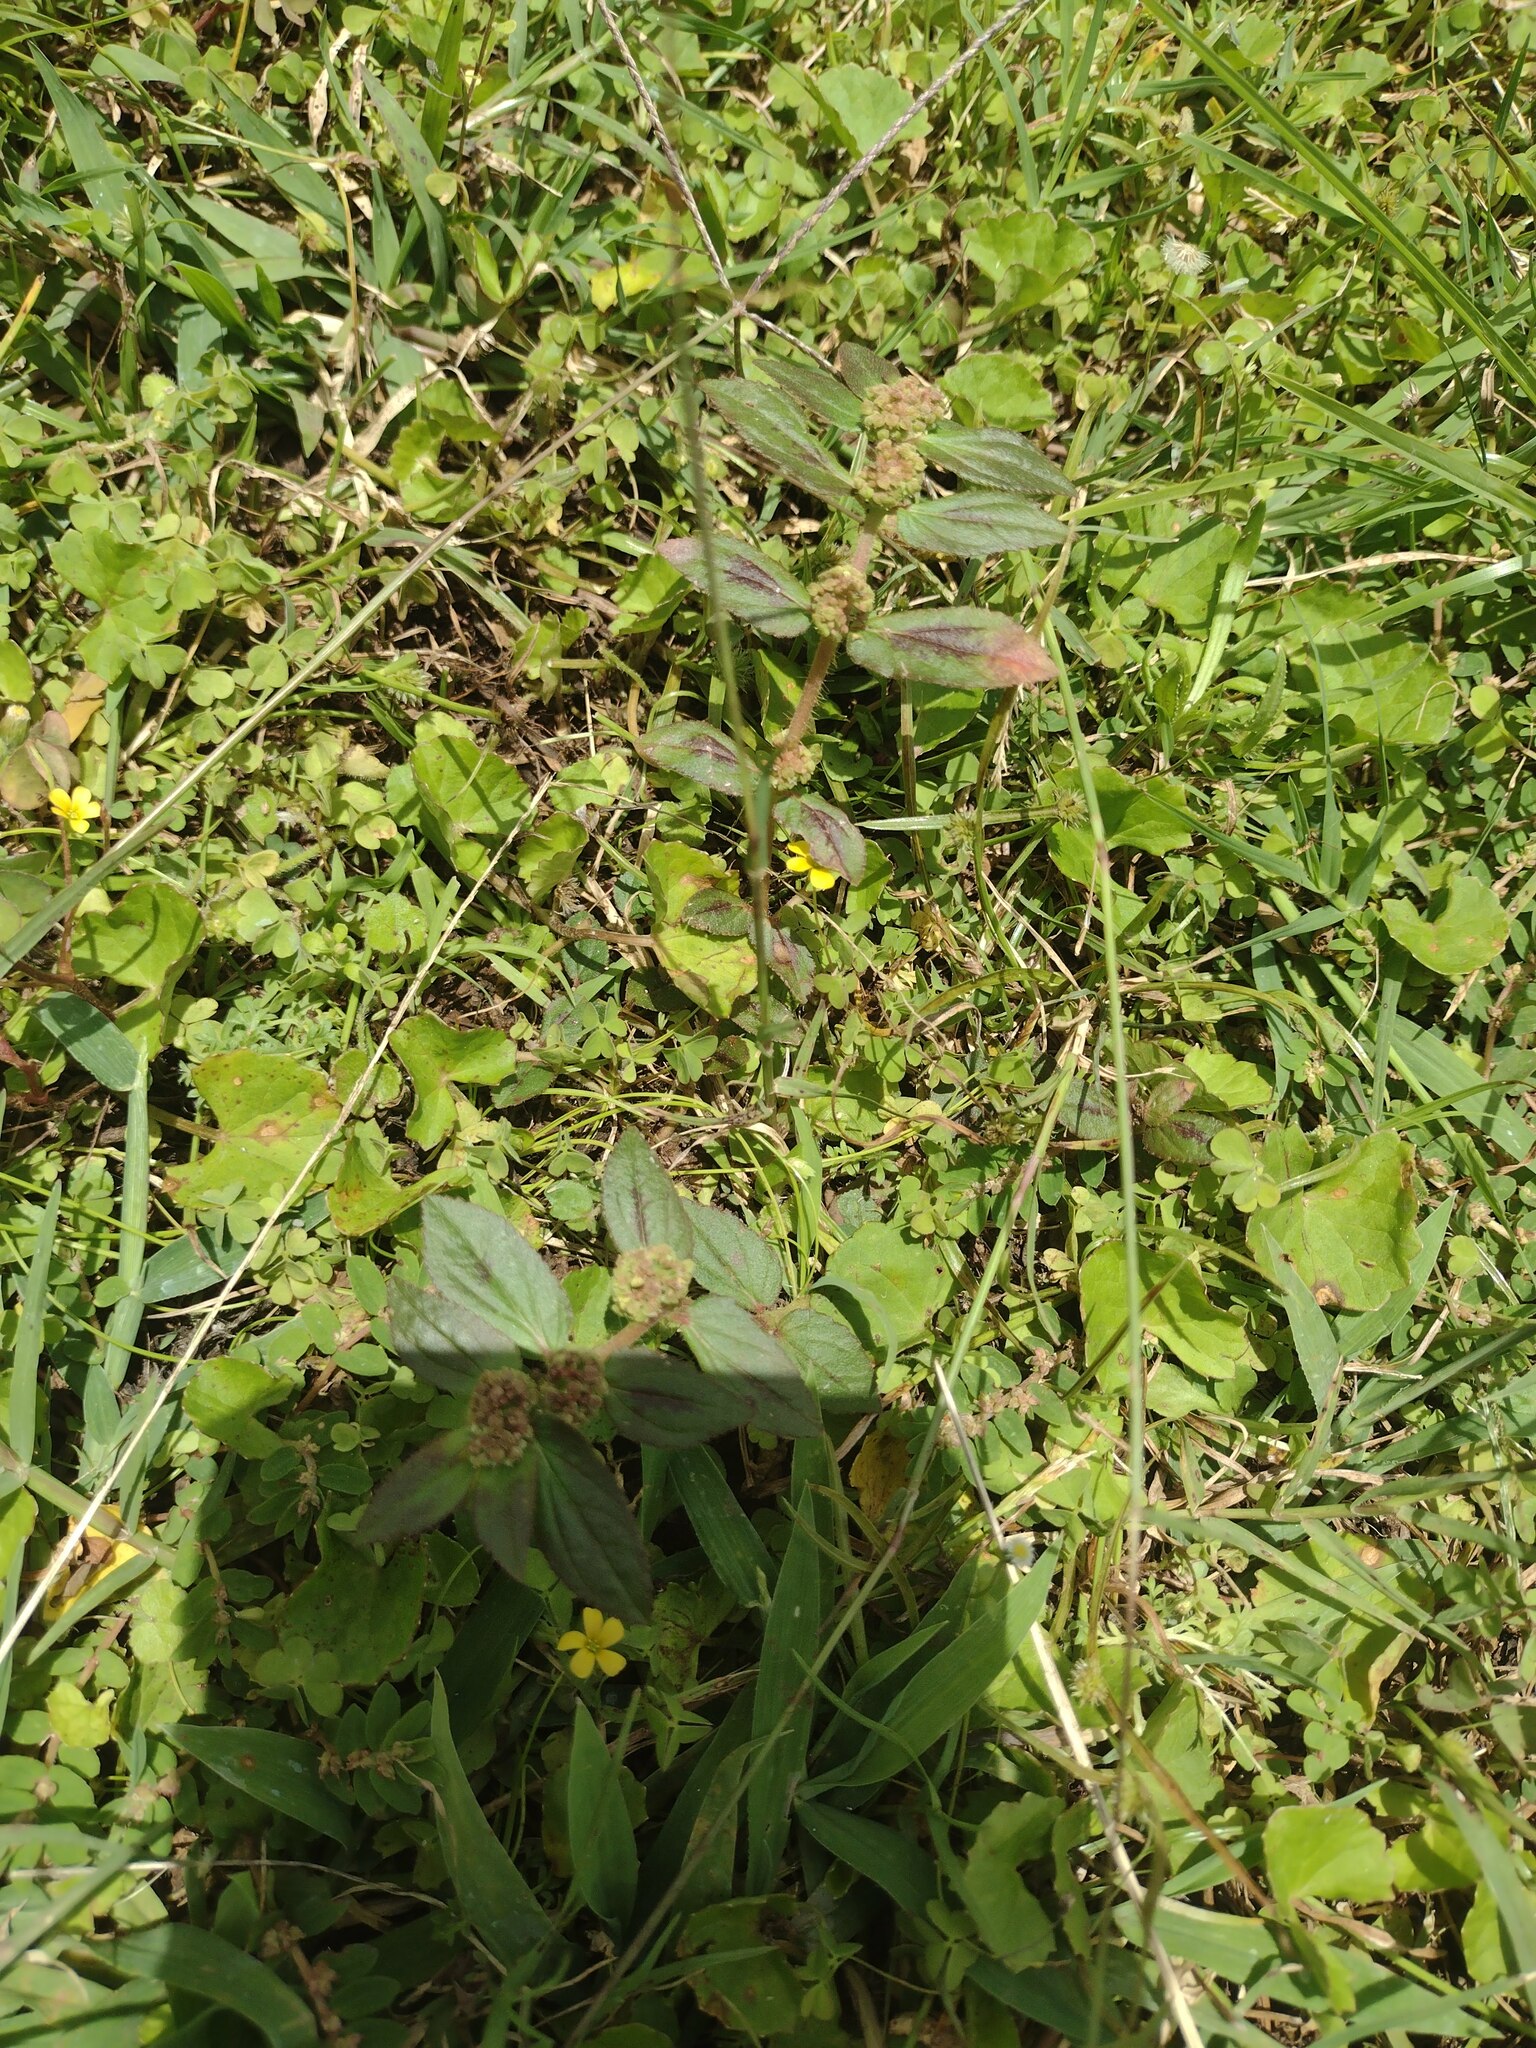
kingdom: Plantae
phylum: Tracheophyta
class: Magnoliopsida
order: Malpighiales
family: Euphorbiaceae
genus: Euphorbia
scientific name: Euphorbia hirta
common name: Pillpod sandmat
